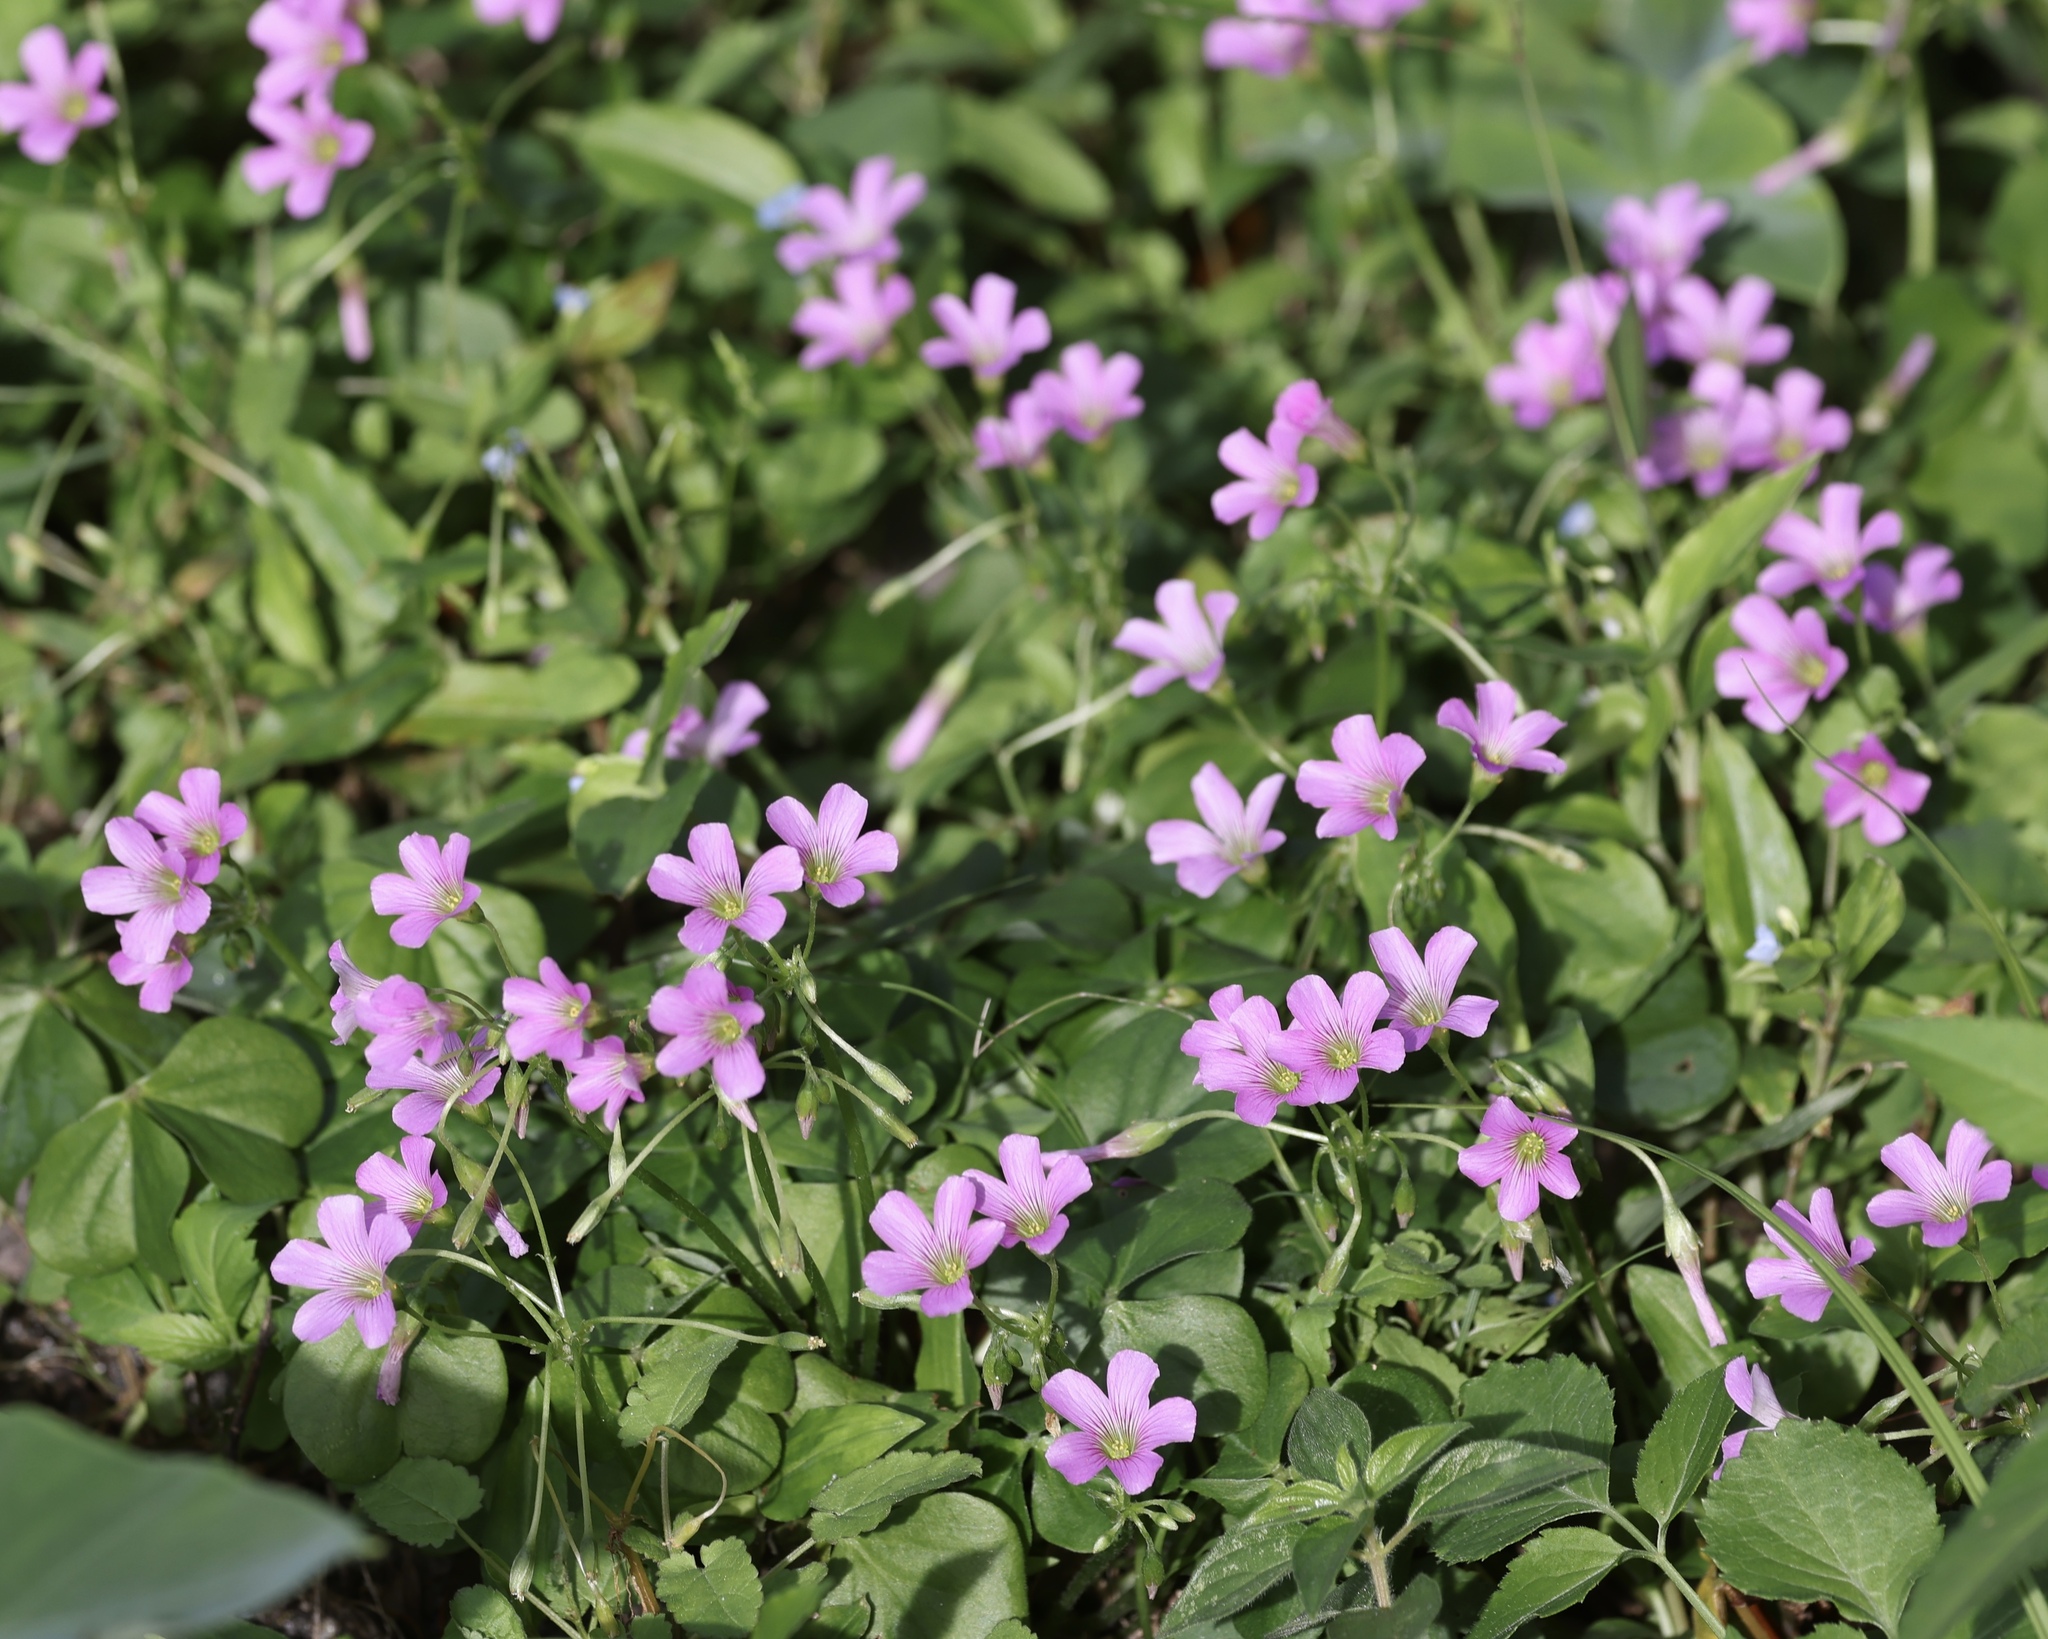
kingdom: Plantae
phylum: Tracheophyta
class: Magnoliopsida
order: Oxalidales
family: Oxalidaceae
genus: Oxalis
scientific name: Oxalis debilis
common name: Large-flowered pink-sorrel
